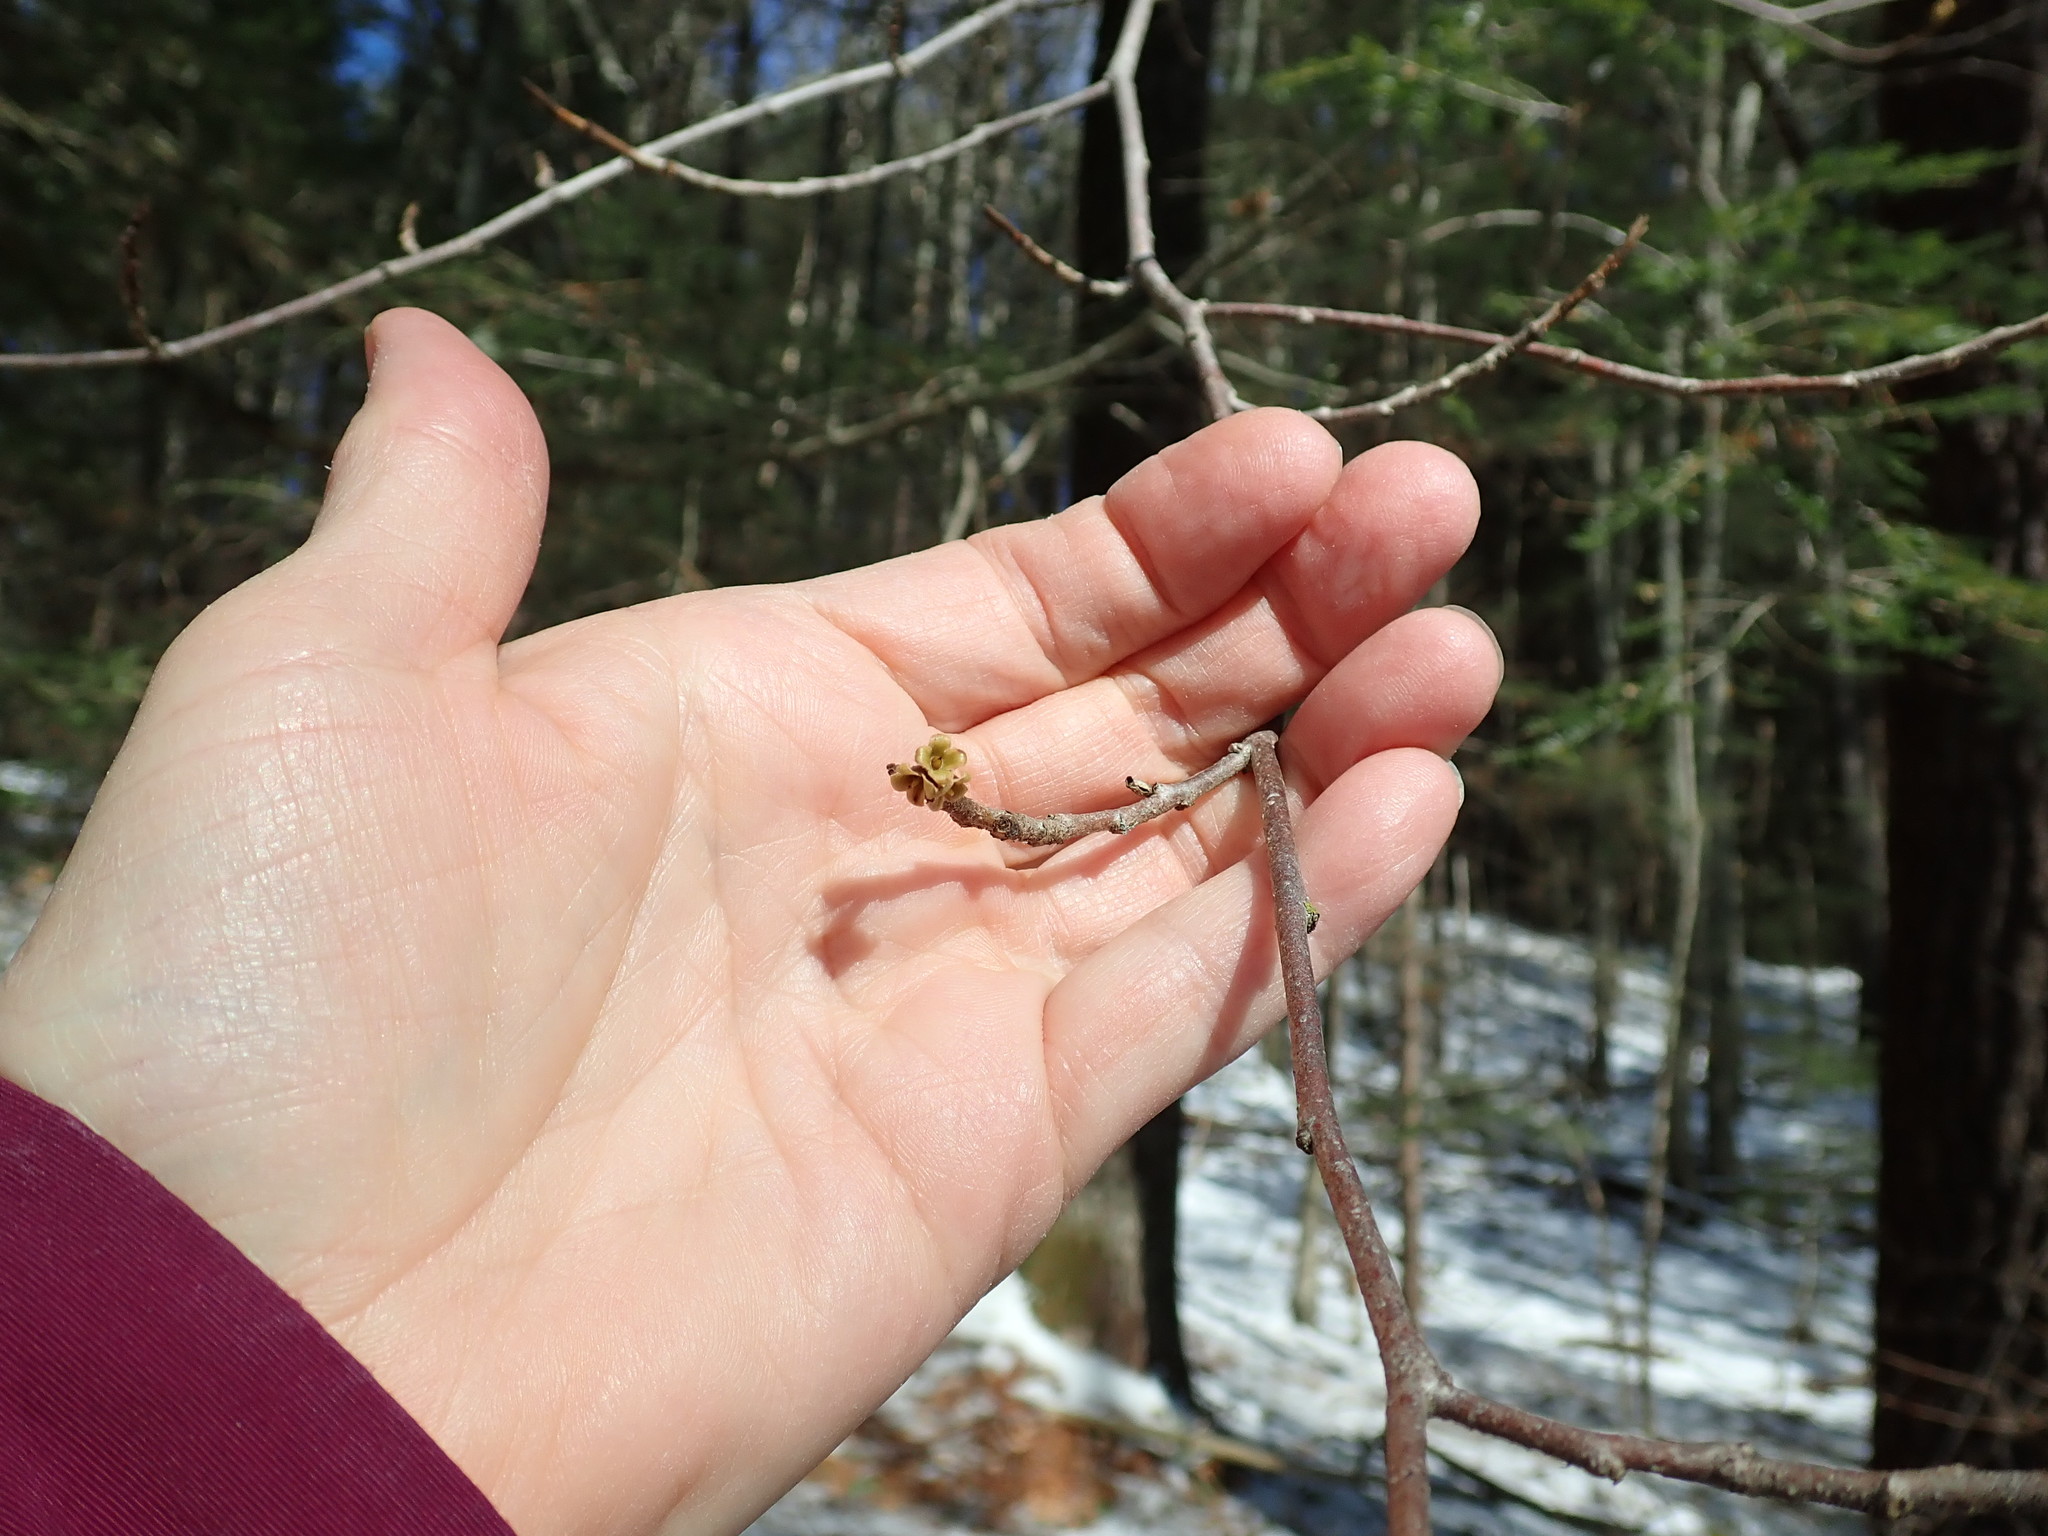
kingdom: Plantae
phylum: Tracheophyta
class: Magnoliopsida
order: Saxifragales
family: Hamamelidaceae
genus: Hamamelis
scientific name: Hamamelis virginiana
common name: Witch-hazel
